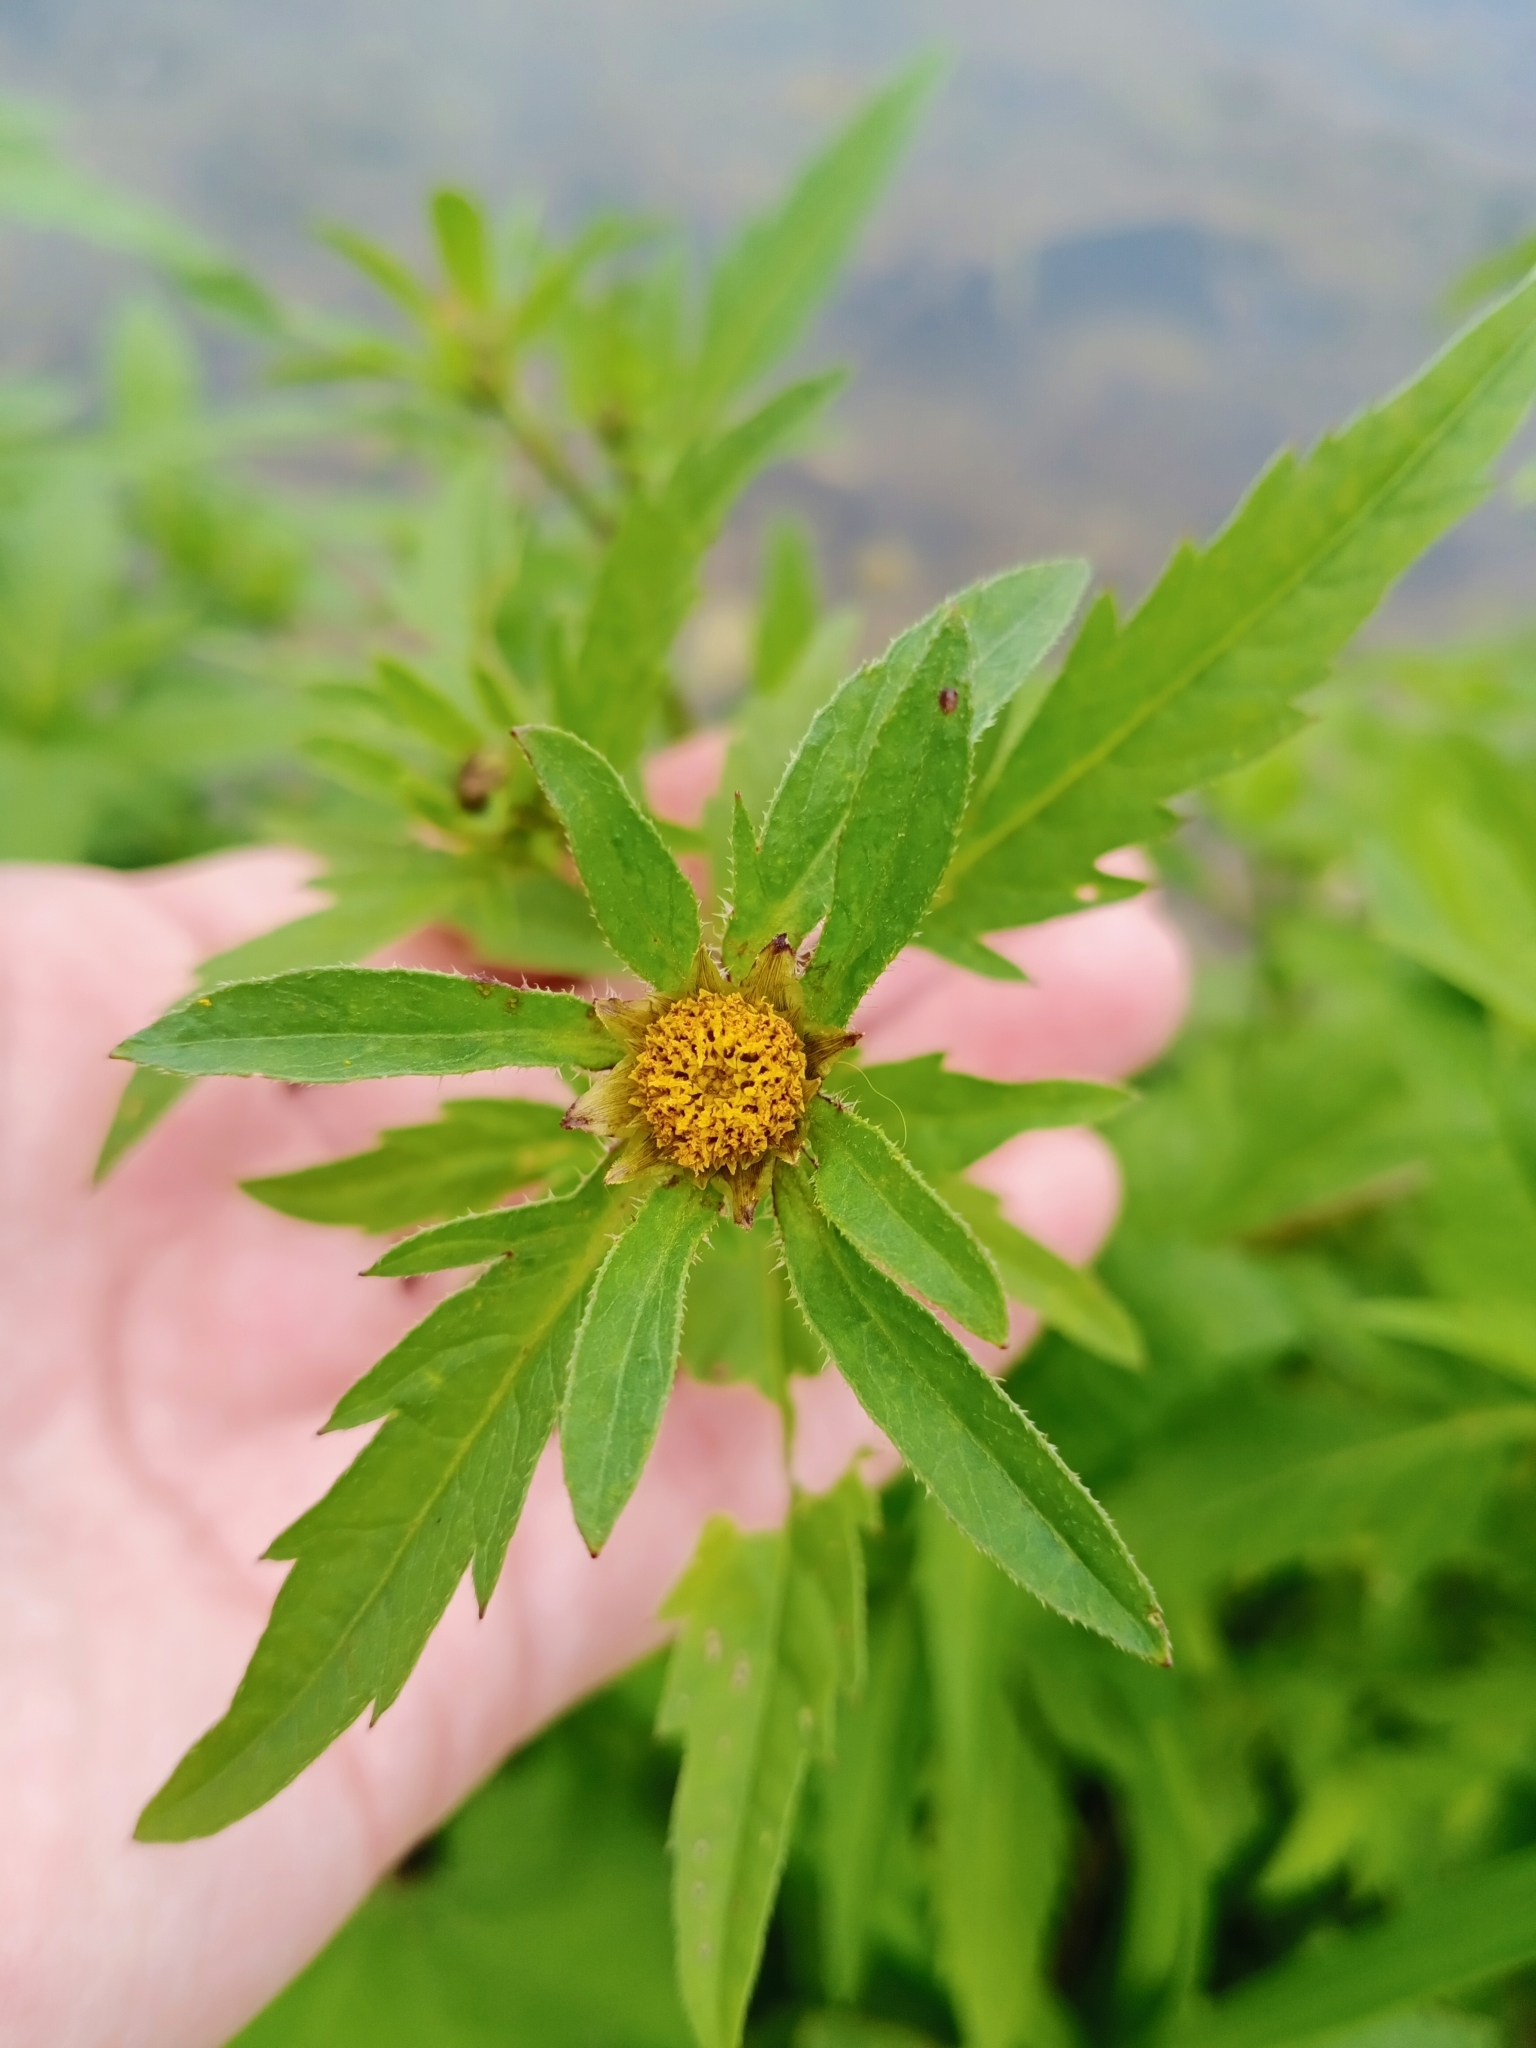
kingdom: Plantae
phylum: Tracheophyta
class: Magnoliopsida
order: Asterales
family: Asteraceae
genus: Bidens
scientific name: Bidens tripartita
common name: Trifid bur-marigold
